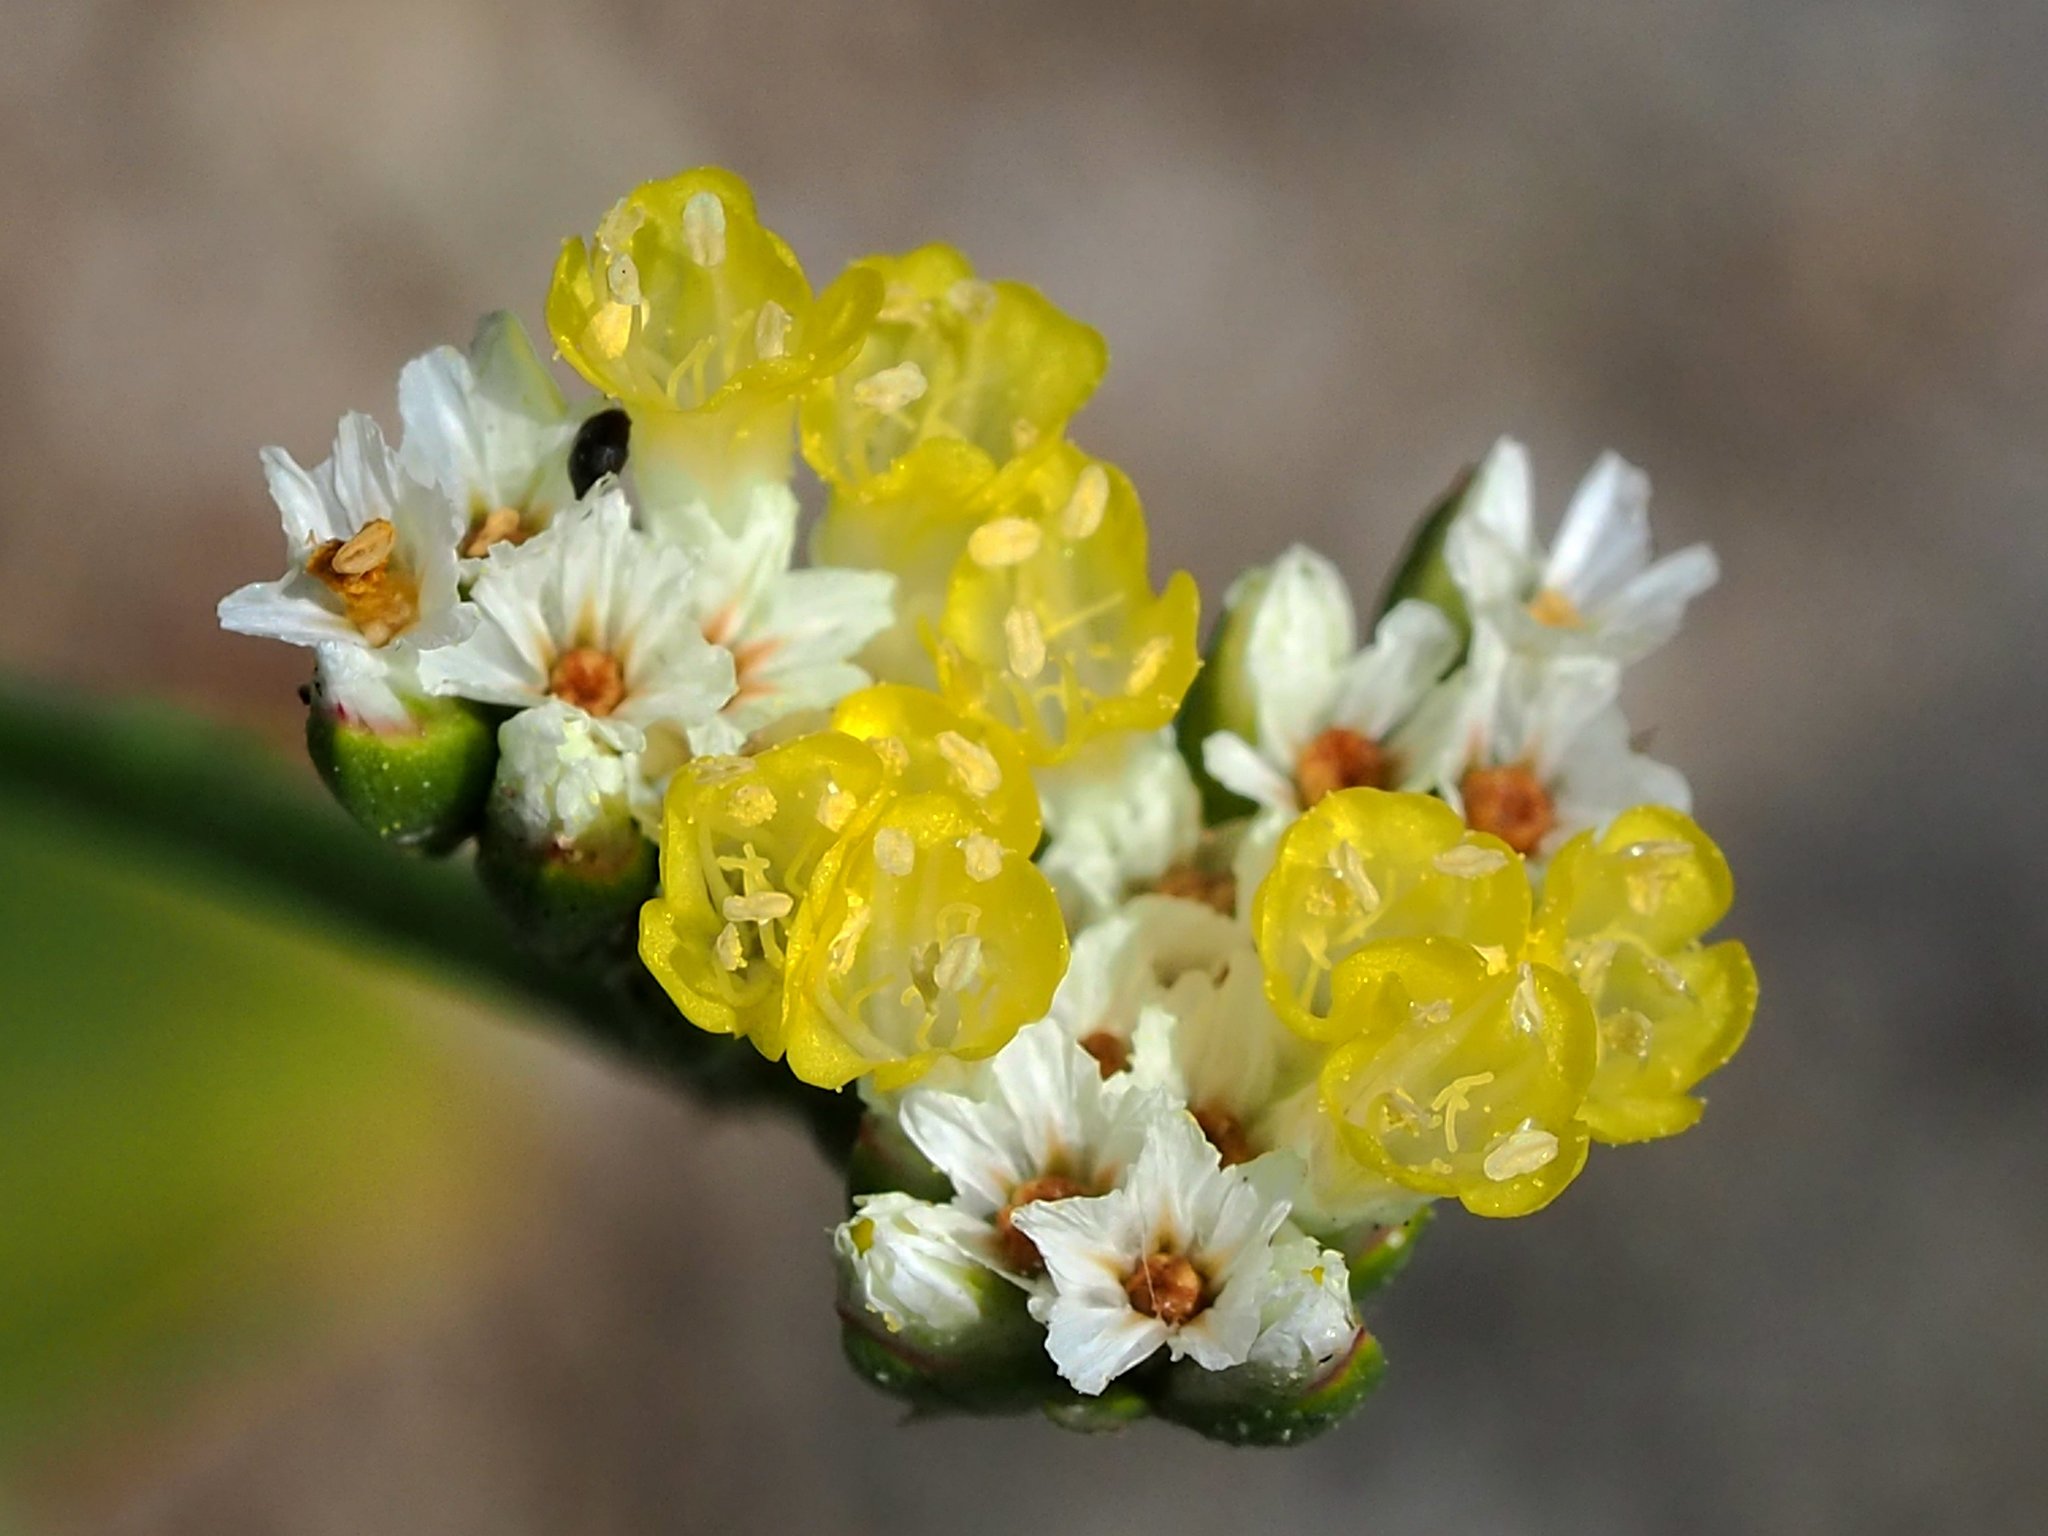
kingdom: Plantae
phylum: Tracheophyta
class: Magnoliopsida
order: Caryophyllales
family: Plumbaginaceae
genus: Limonium
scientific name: Limonium sinense
